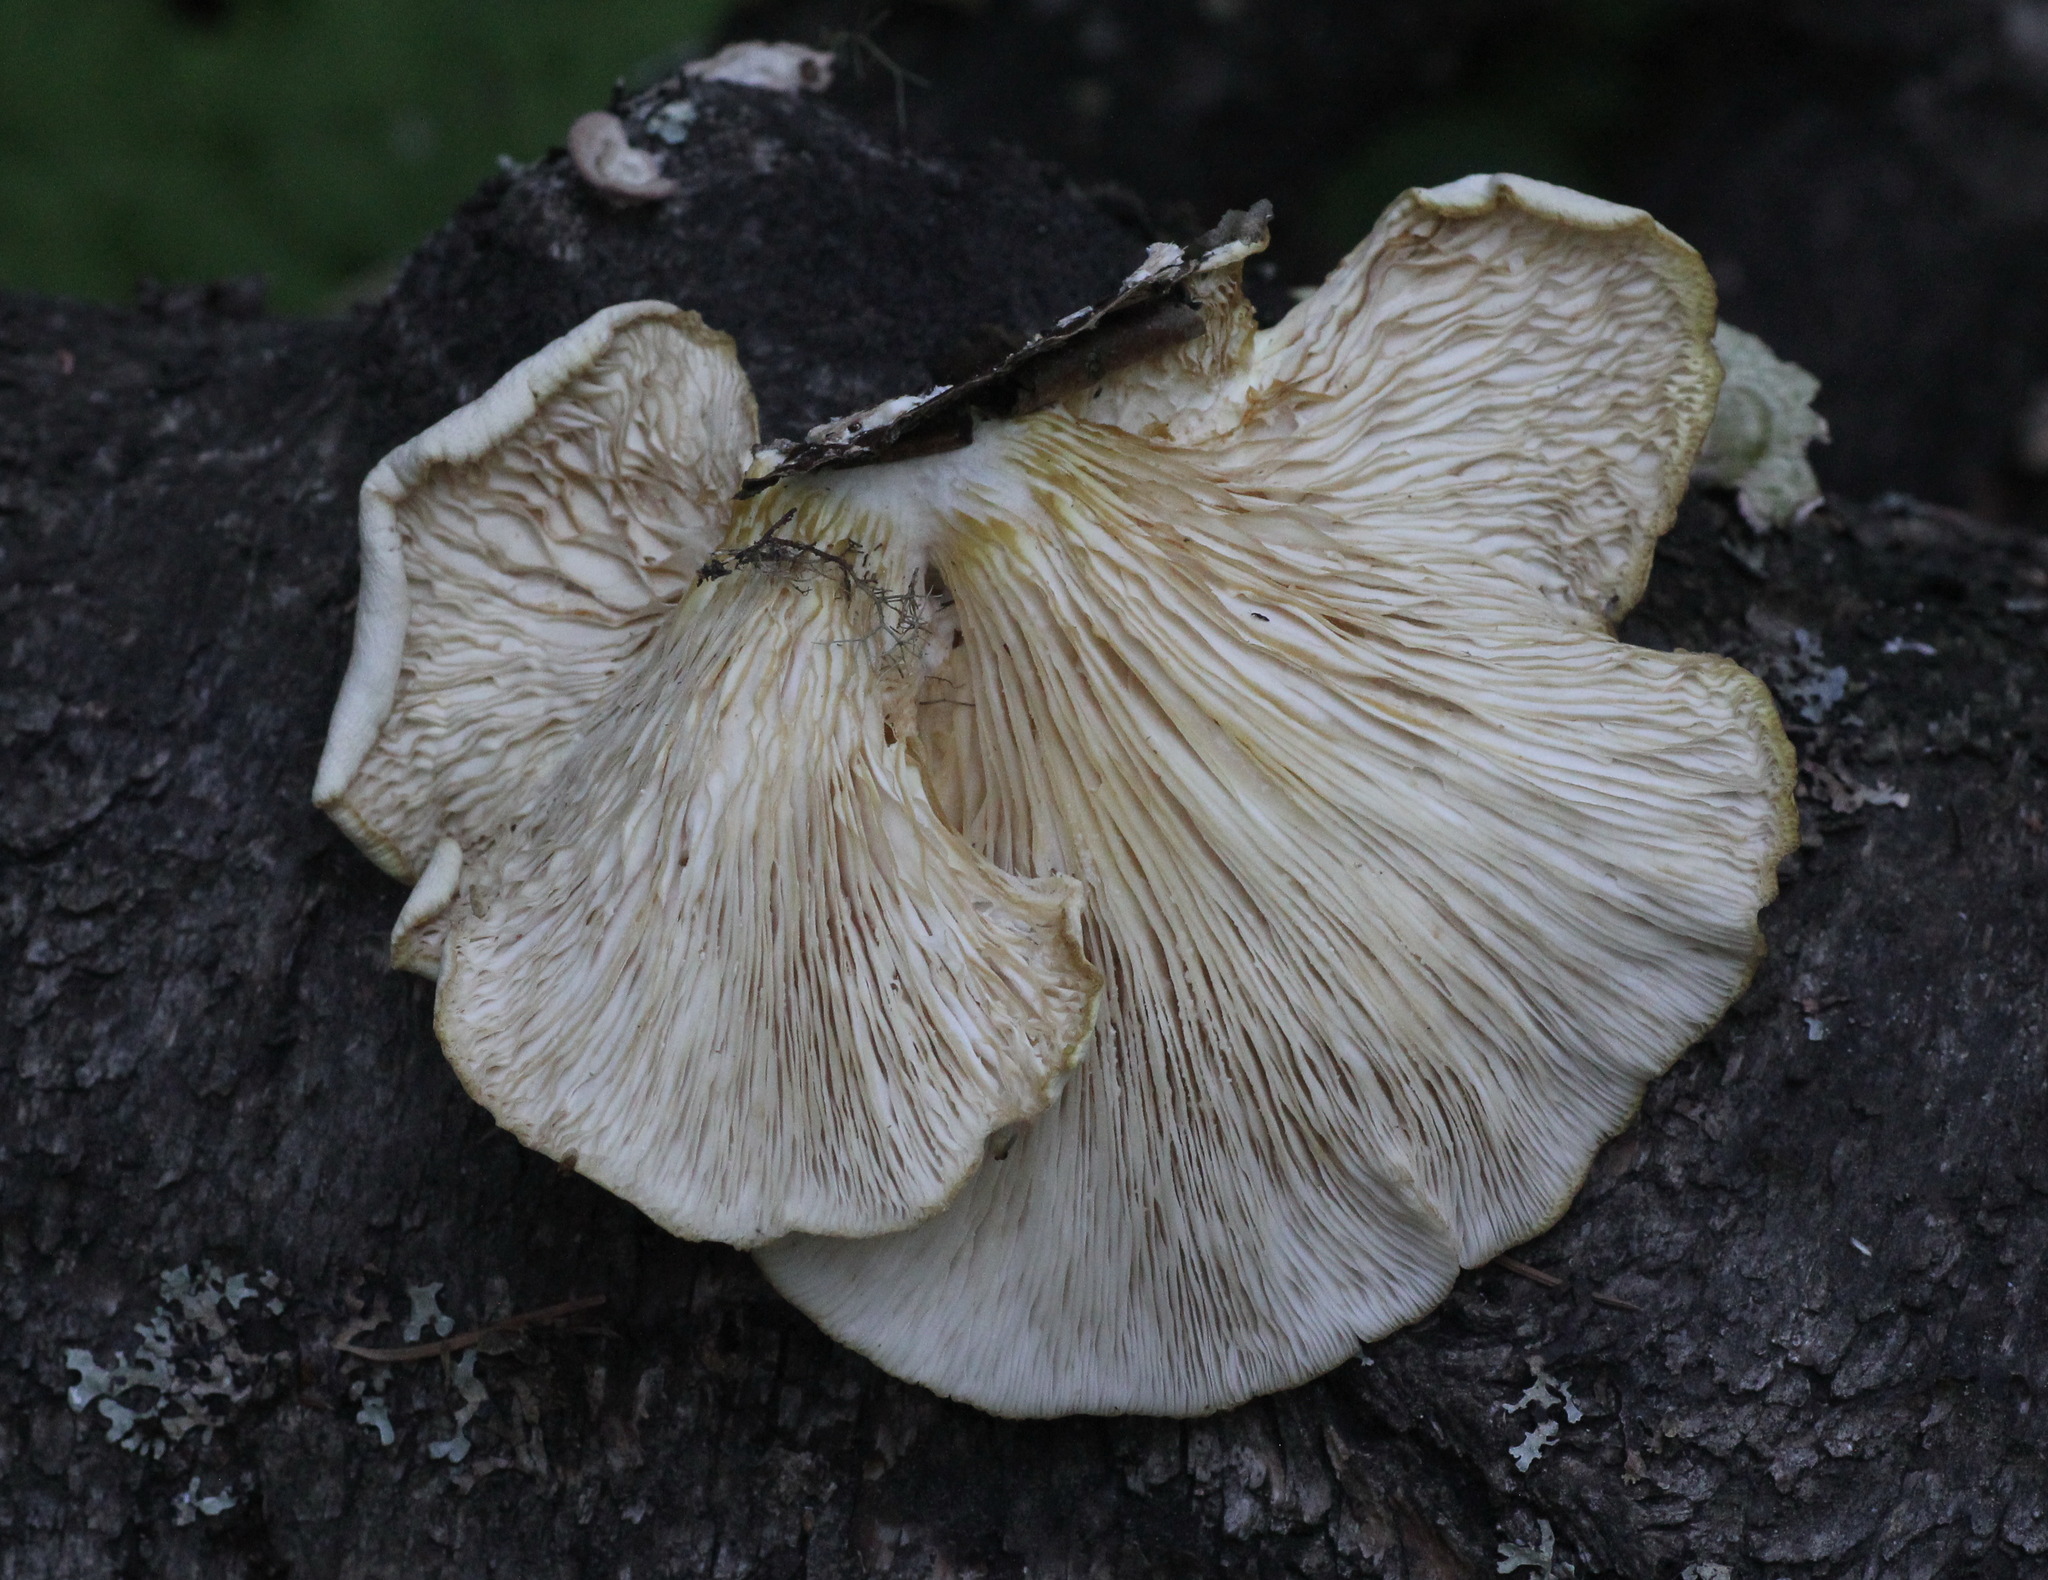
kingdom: Fungi
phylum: Basidiomycota
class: Agaricomycetes
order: Agaricales
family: Pleurotaceae
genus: Pleurotus
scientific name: Pleurotus pulmonarius
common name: Pale oyster
